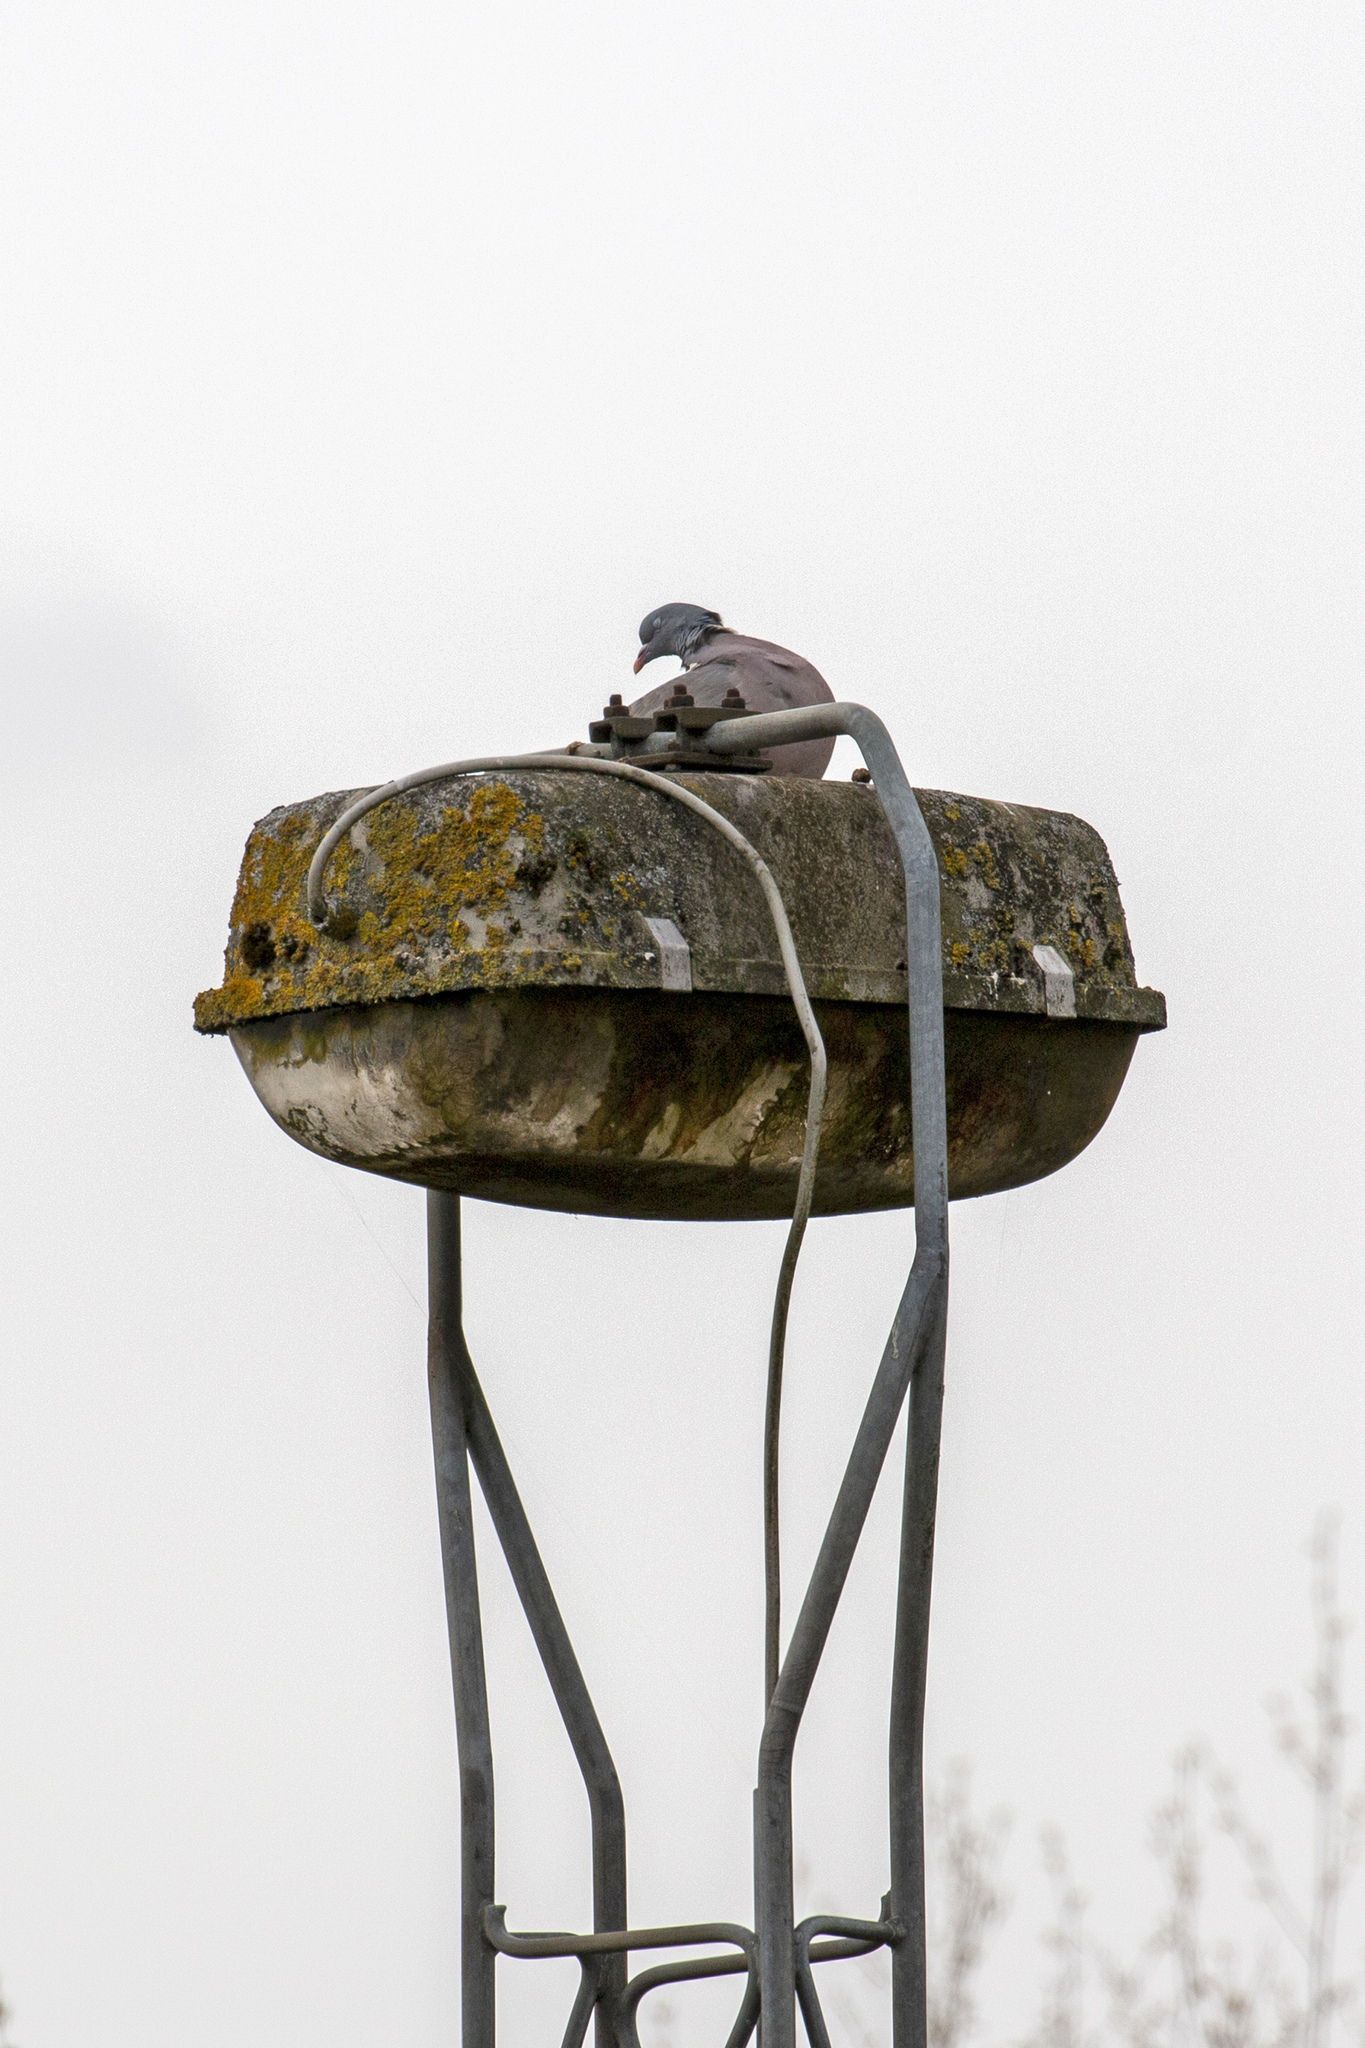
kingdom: Animalia
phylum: Chordata
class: Aves
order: Columbiformes
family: Columbidae
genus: Columba
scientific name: Columba palumbus
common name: Common wood pigeon
